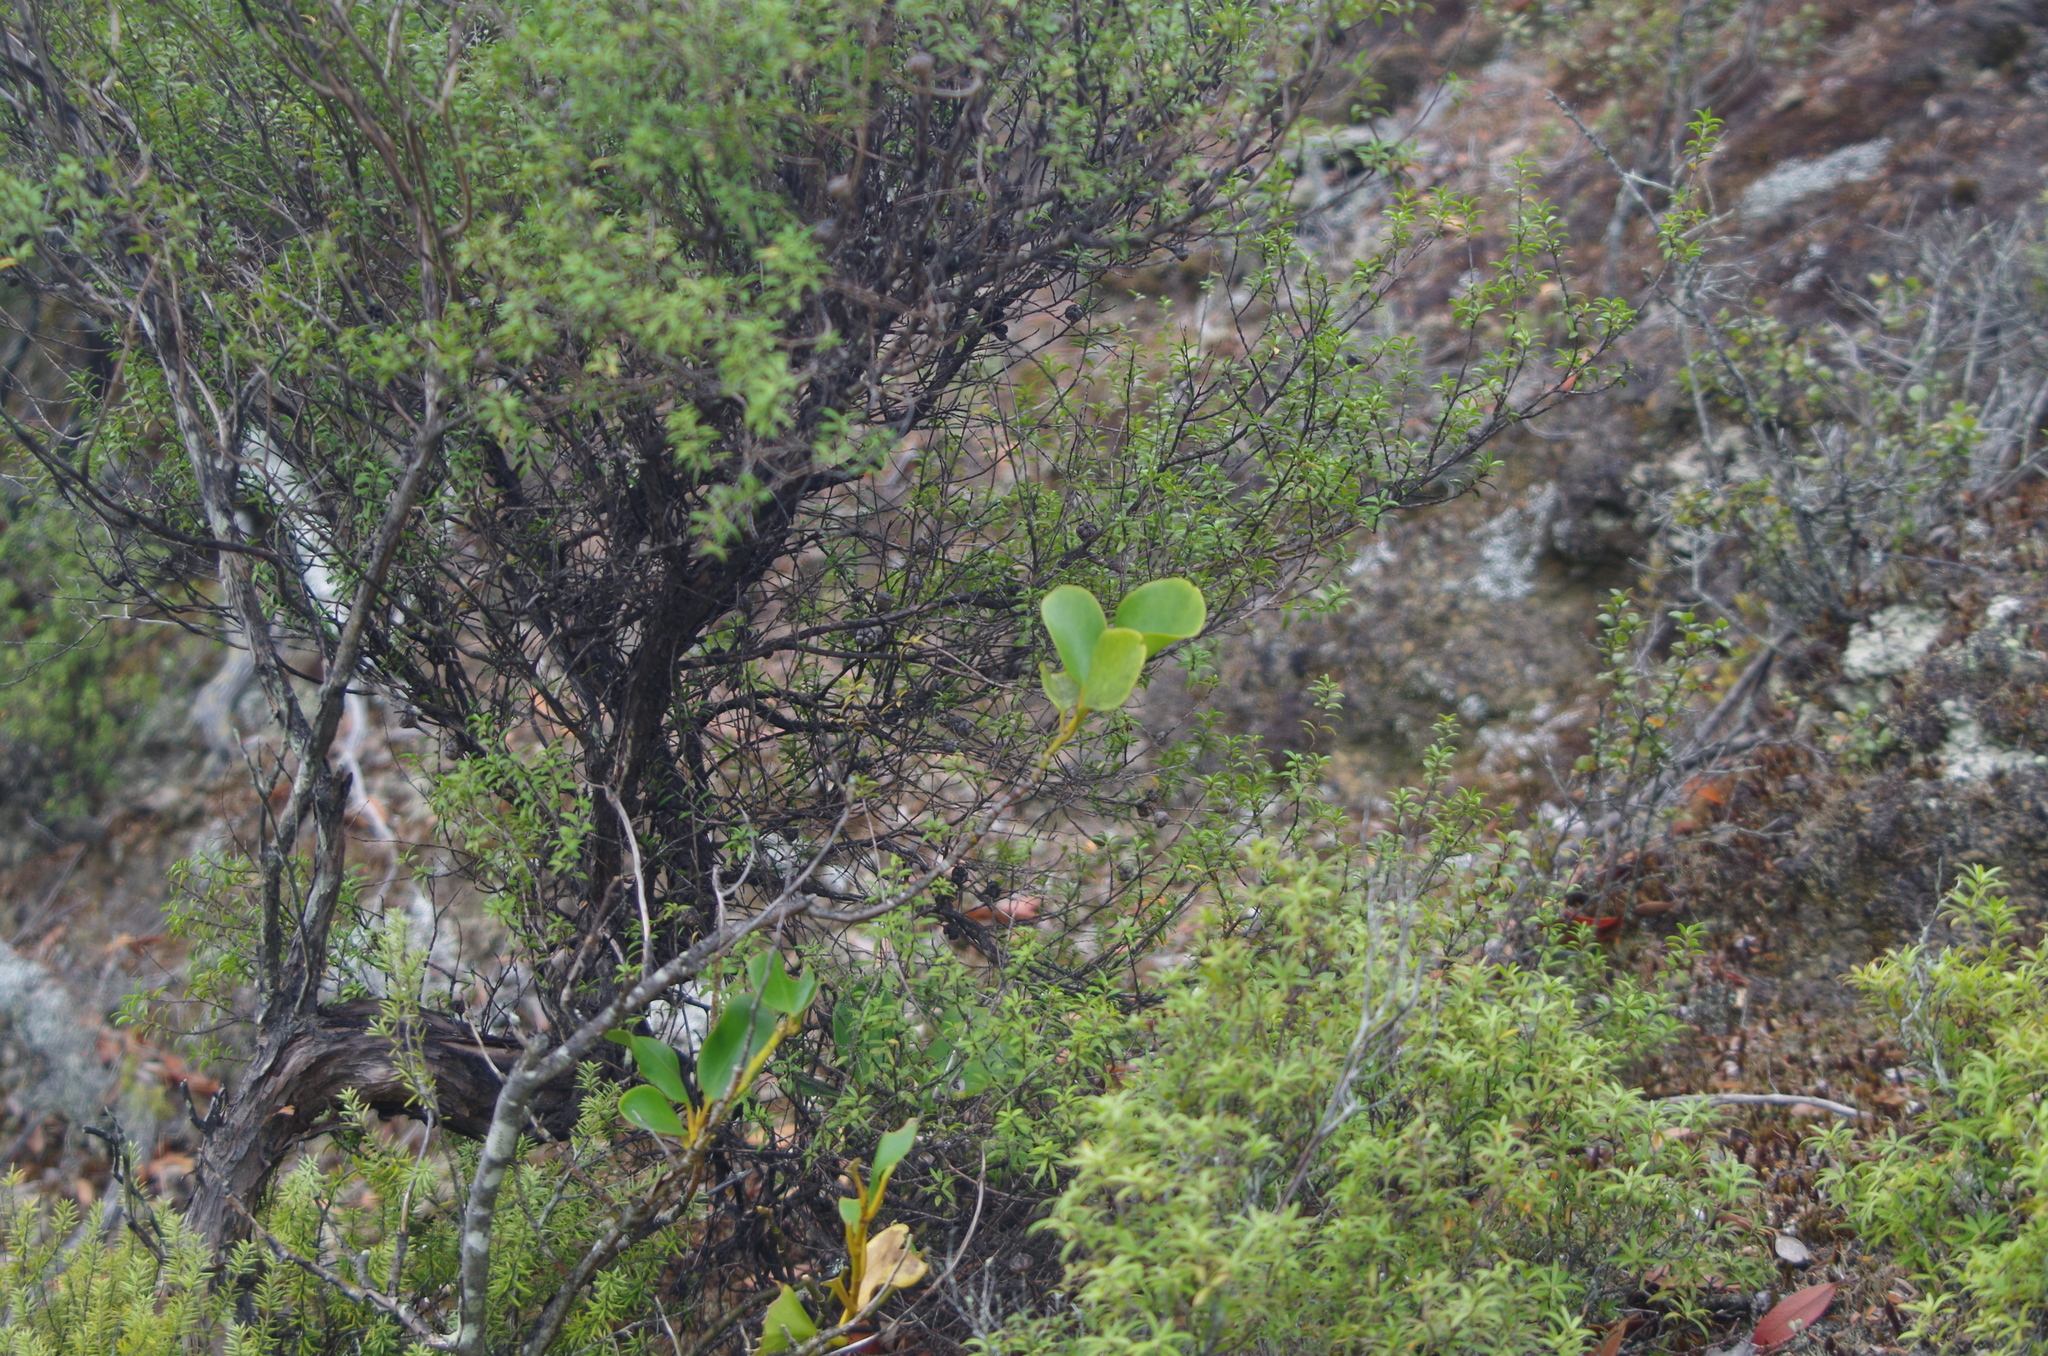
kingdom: Plantae
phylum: Tracheophyta
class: Magnoliopsida
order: Apiales
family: Griseliniaceae
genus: Griselinia
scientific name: Griselinia littoralis
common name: New zealand broadleaf
